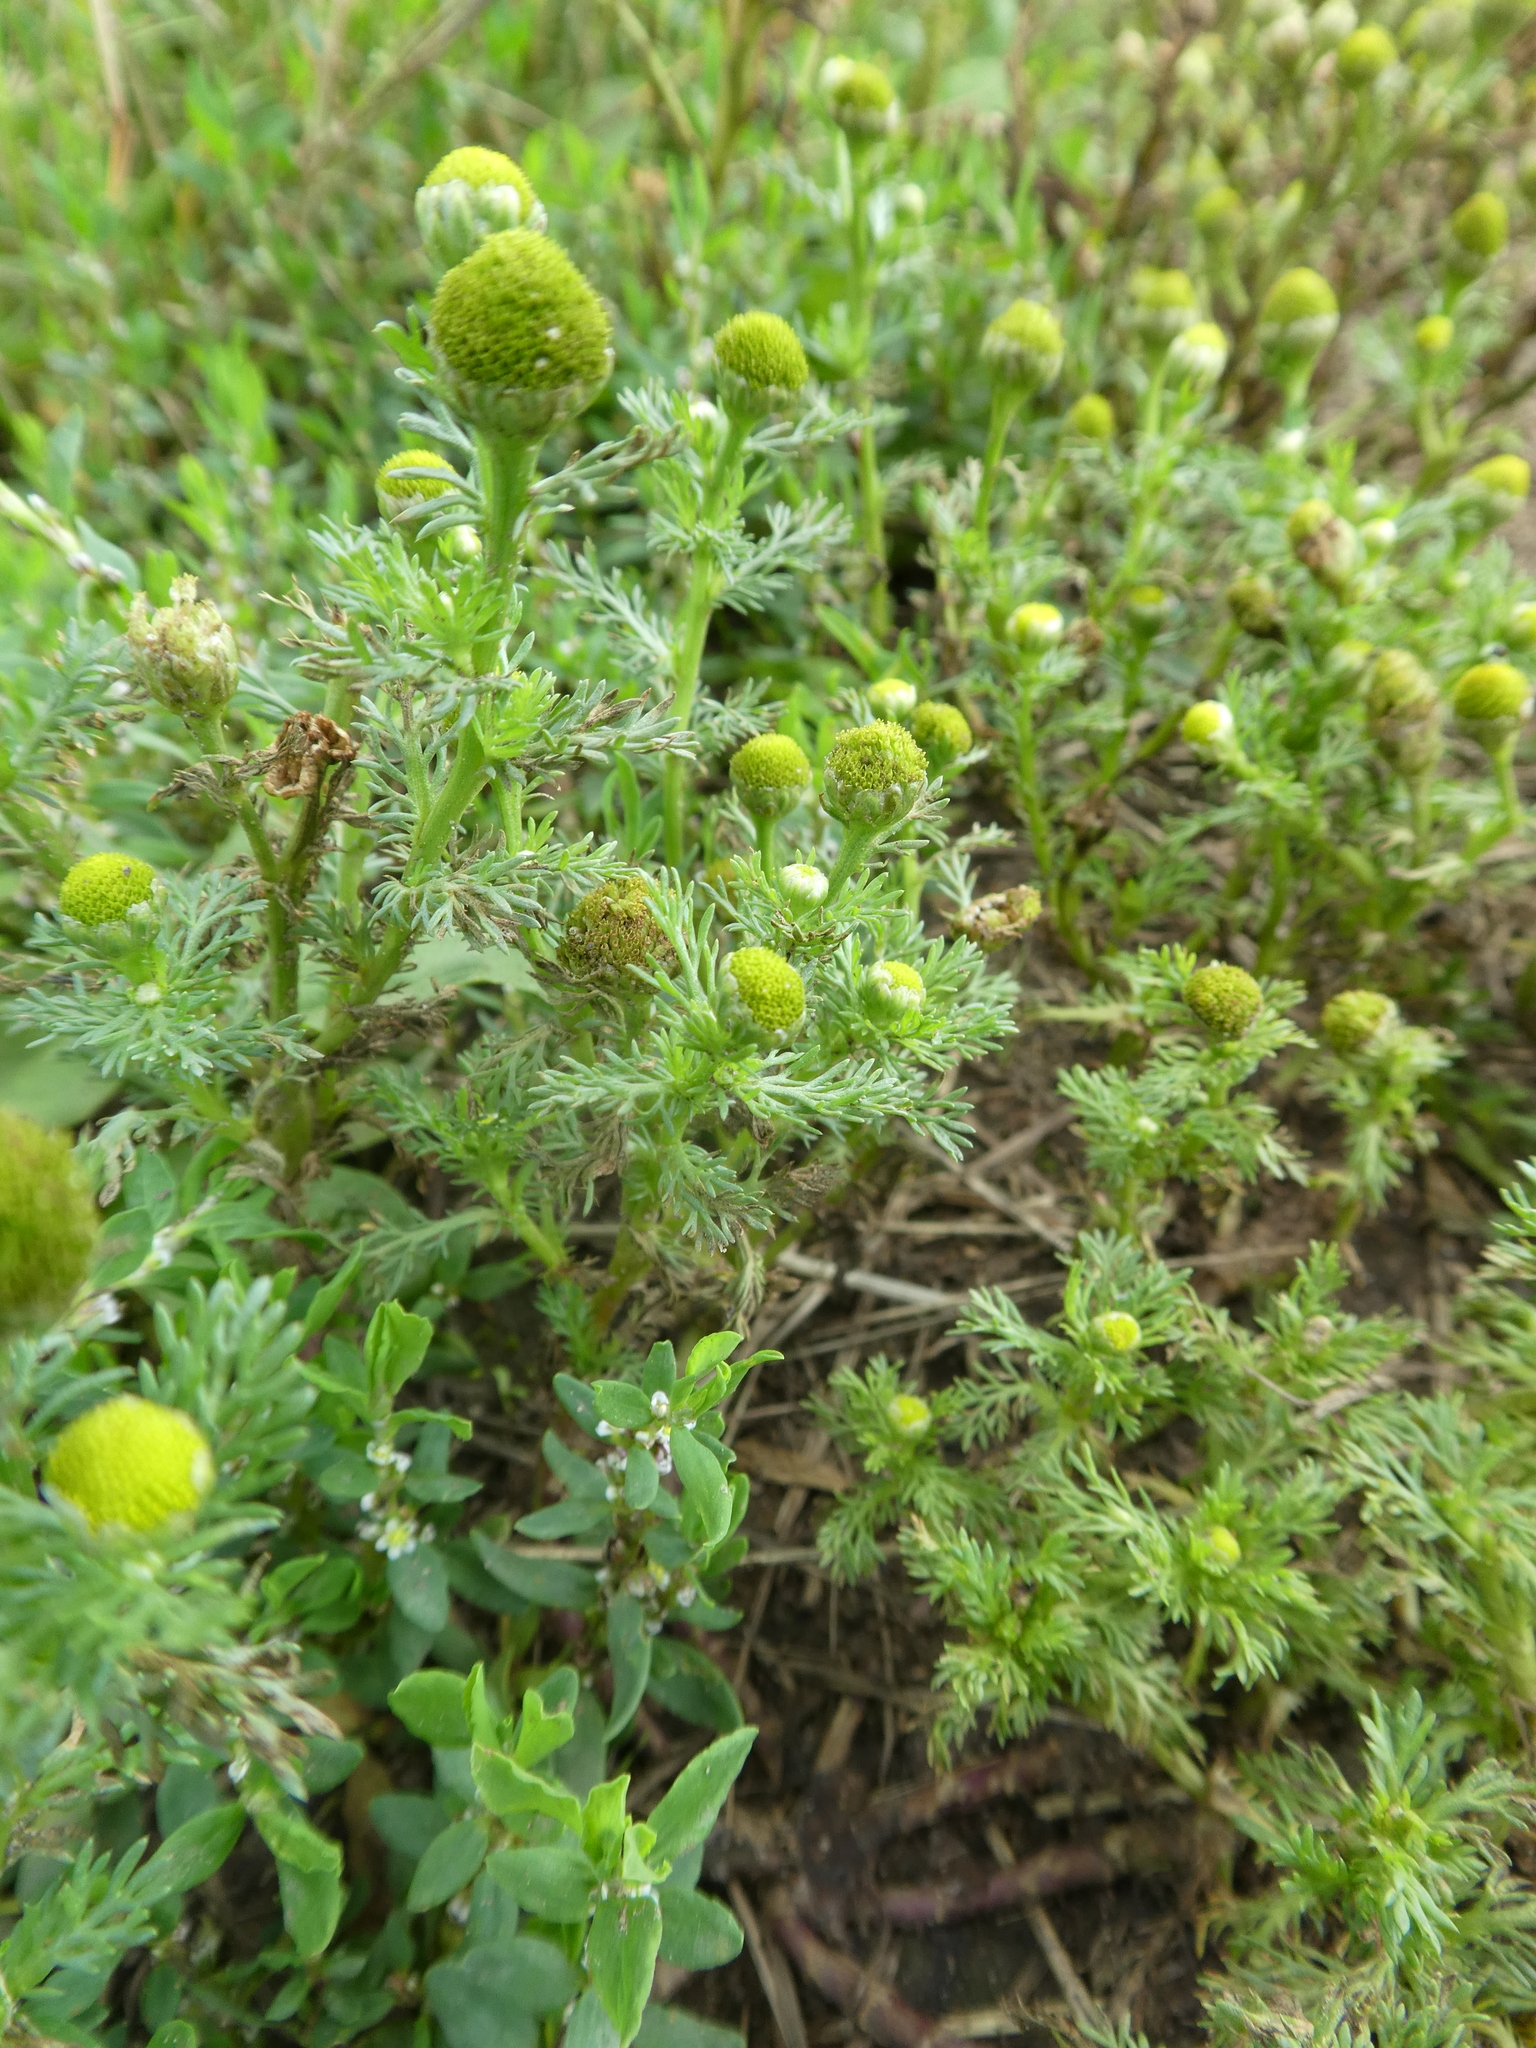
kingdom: Plantae
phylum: Tracheophyta
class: Magnoliopsida
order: Asterales
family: Asteraceae
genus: Matricaria
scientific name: Matricaria discoidea
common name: Disc mayweed
